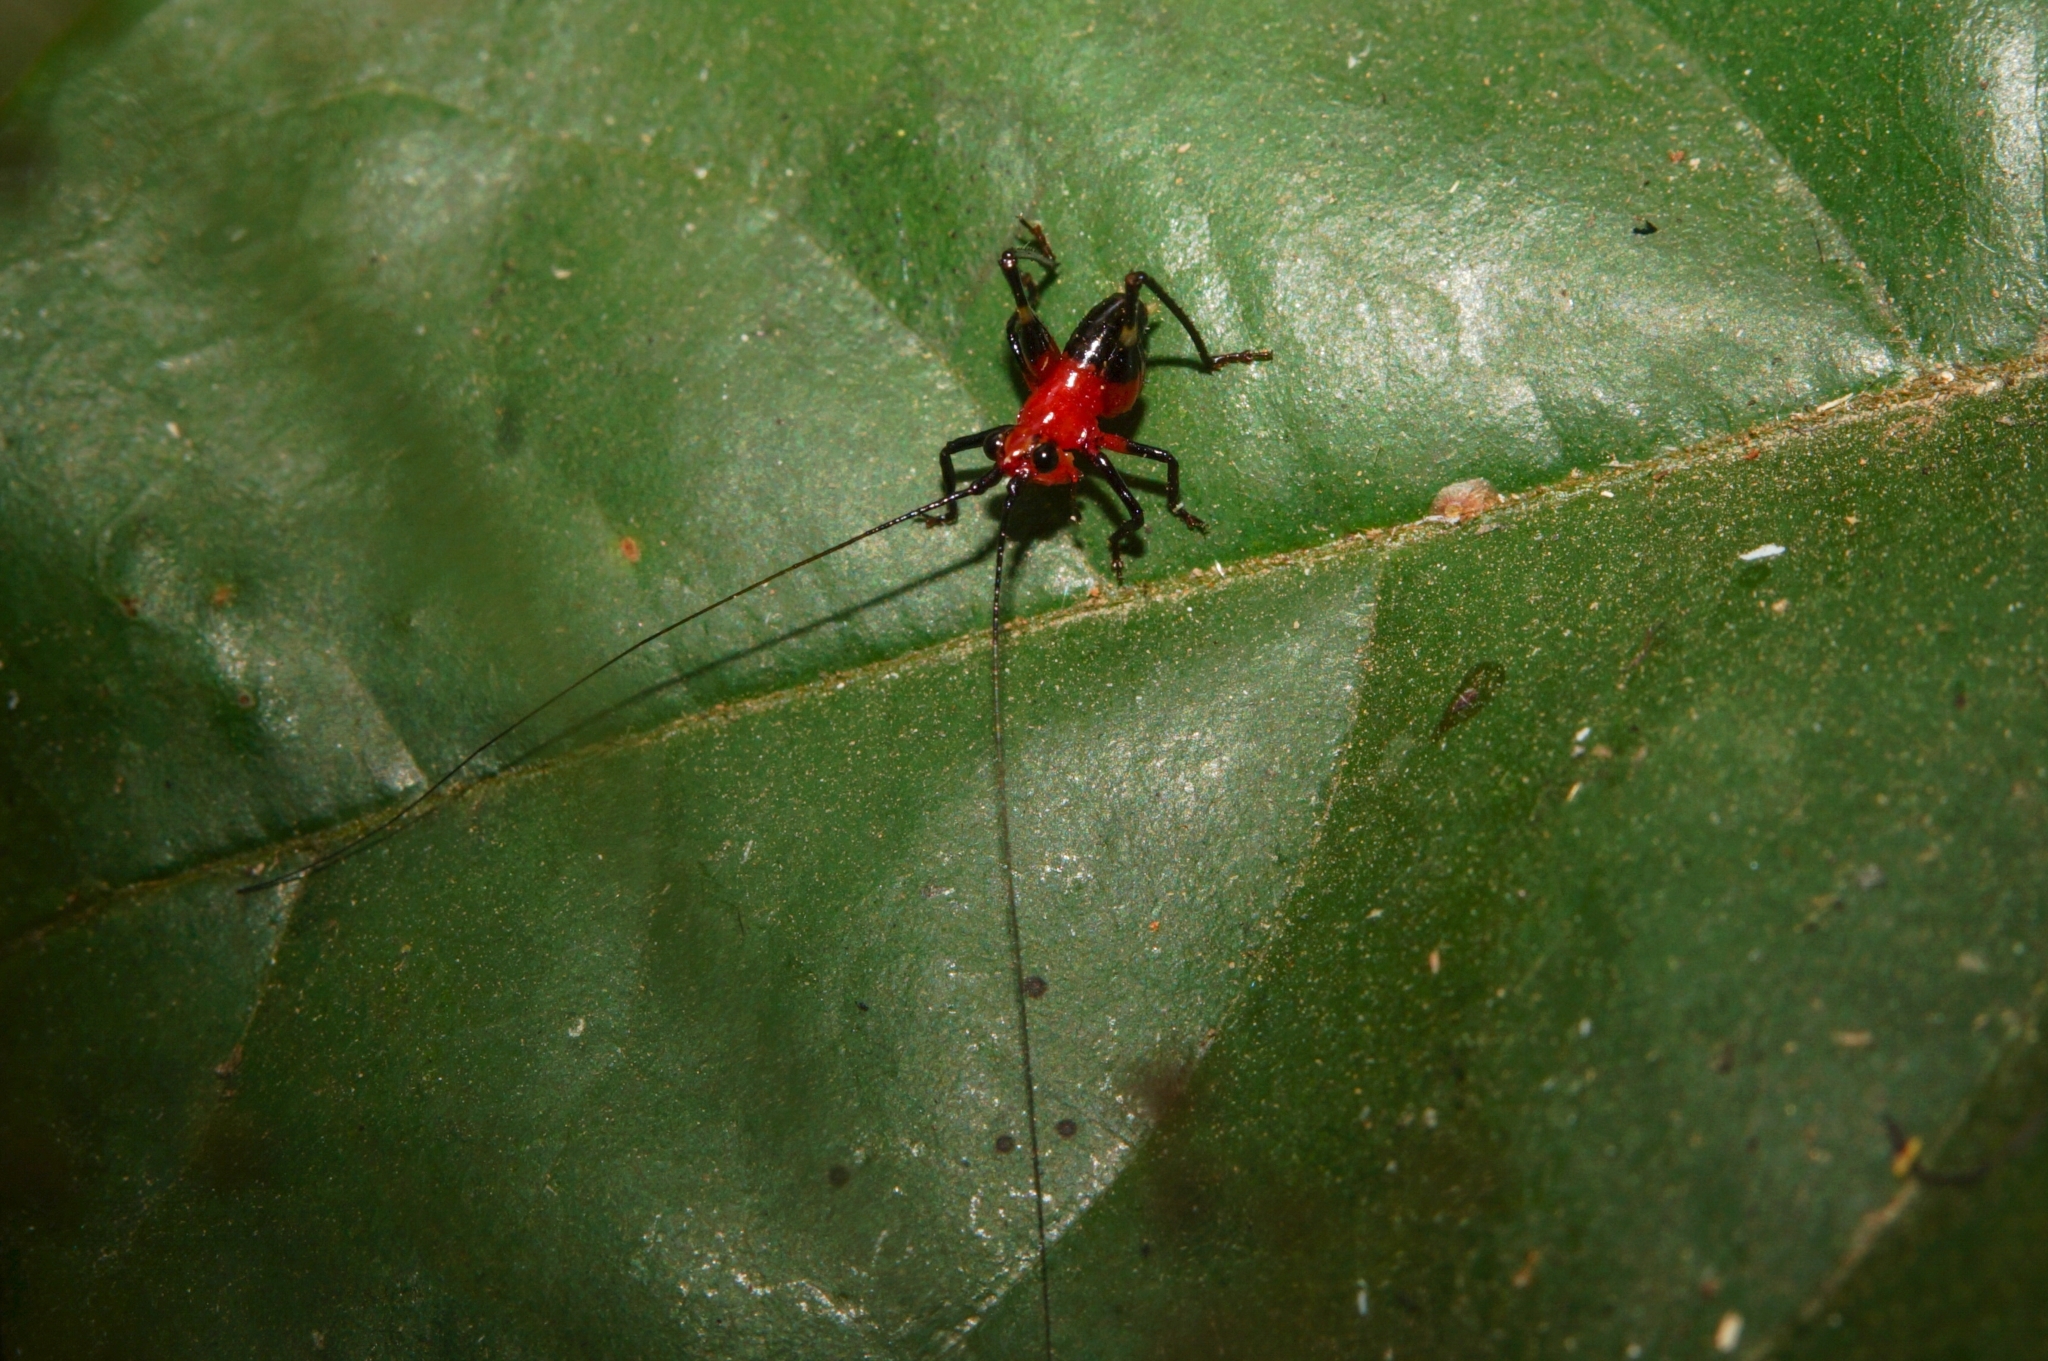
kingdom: Animalia
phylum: Arthropoda
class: Insecta
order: Orthoptera
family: Tettigoniidae
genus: Conocephalus
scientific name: Conocephalus melaenus
